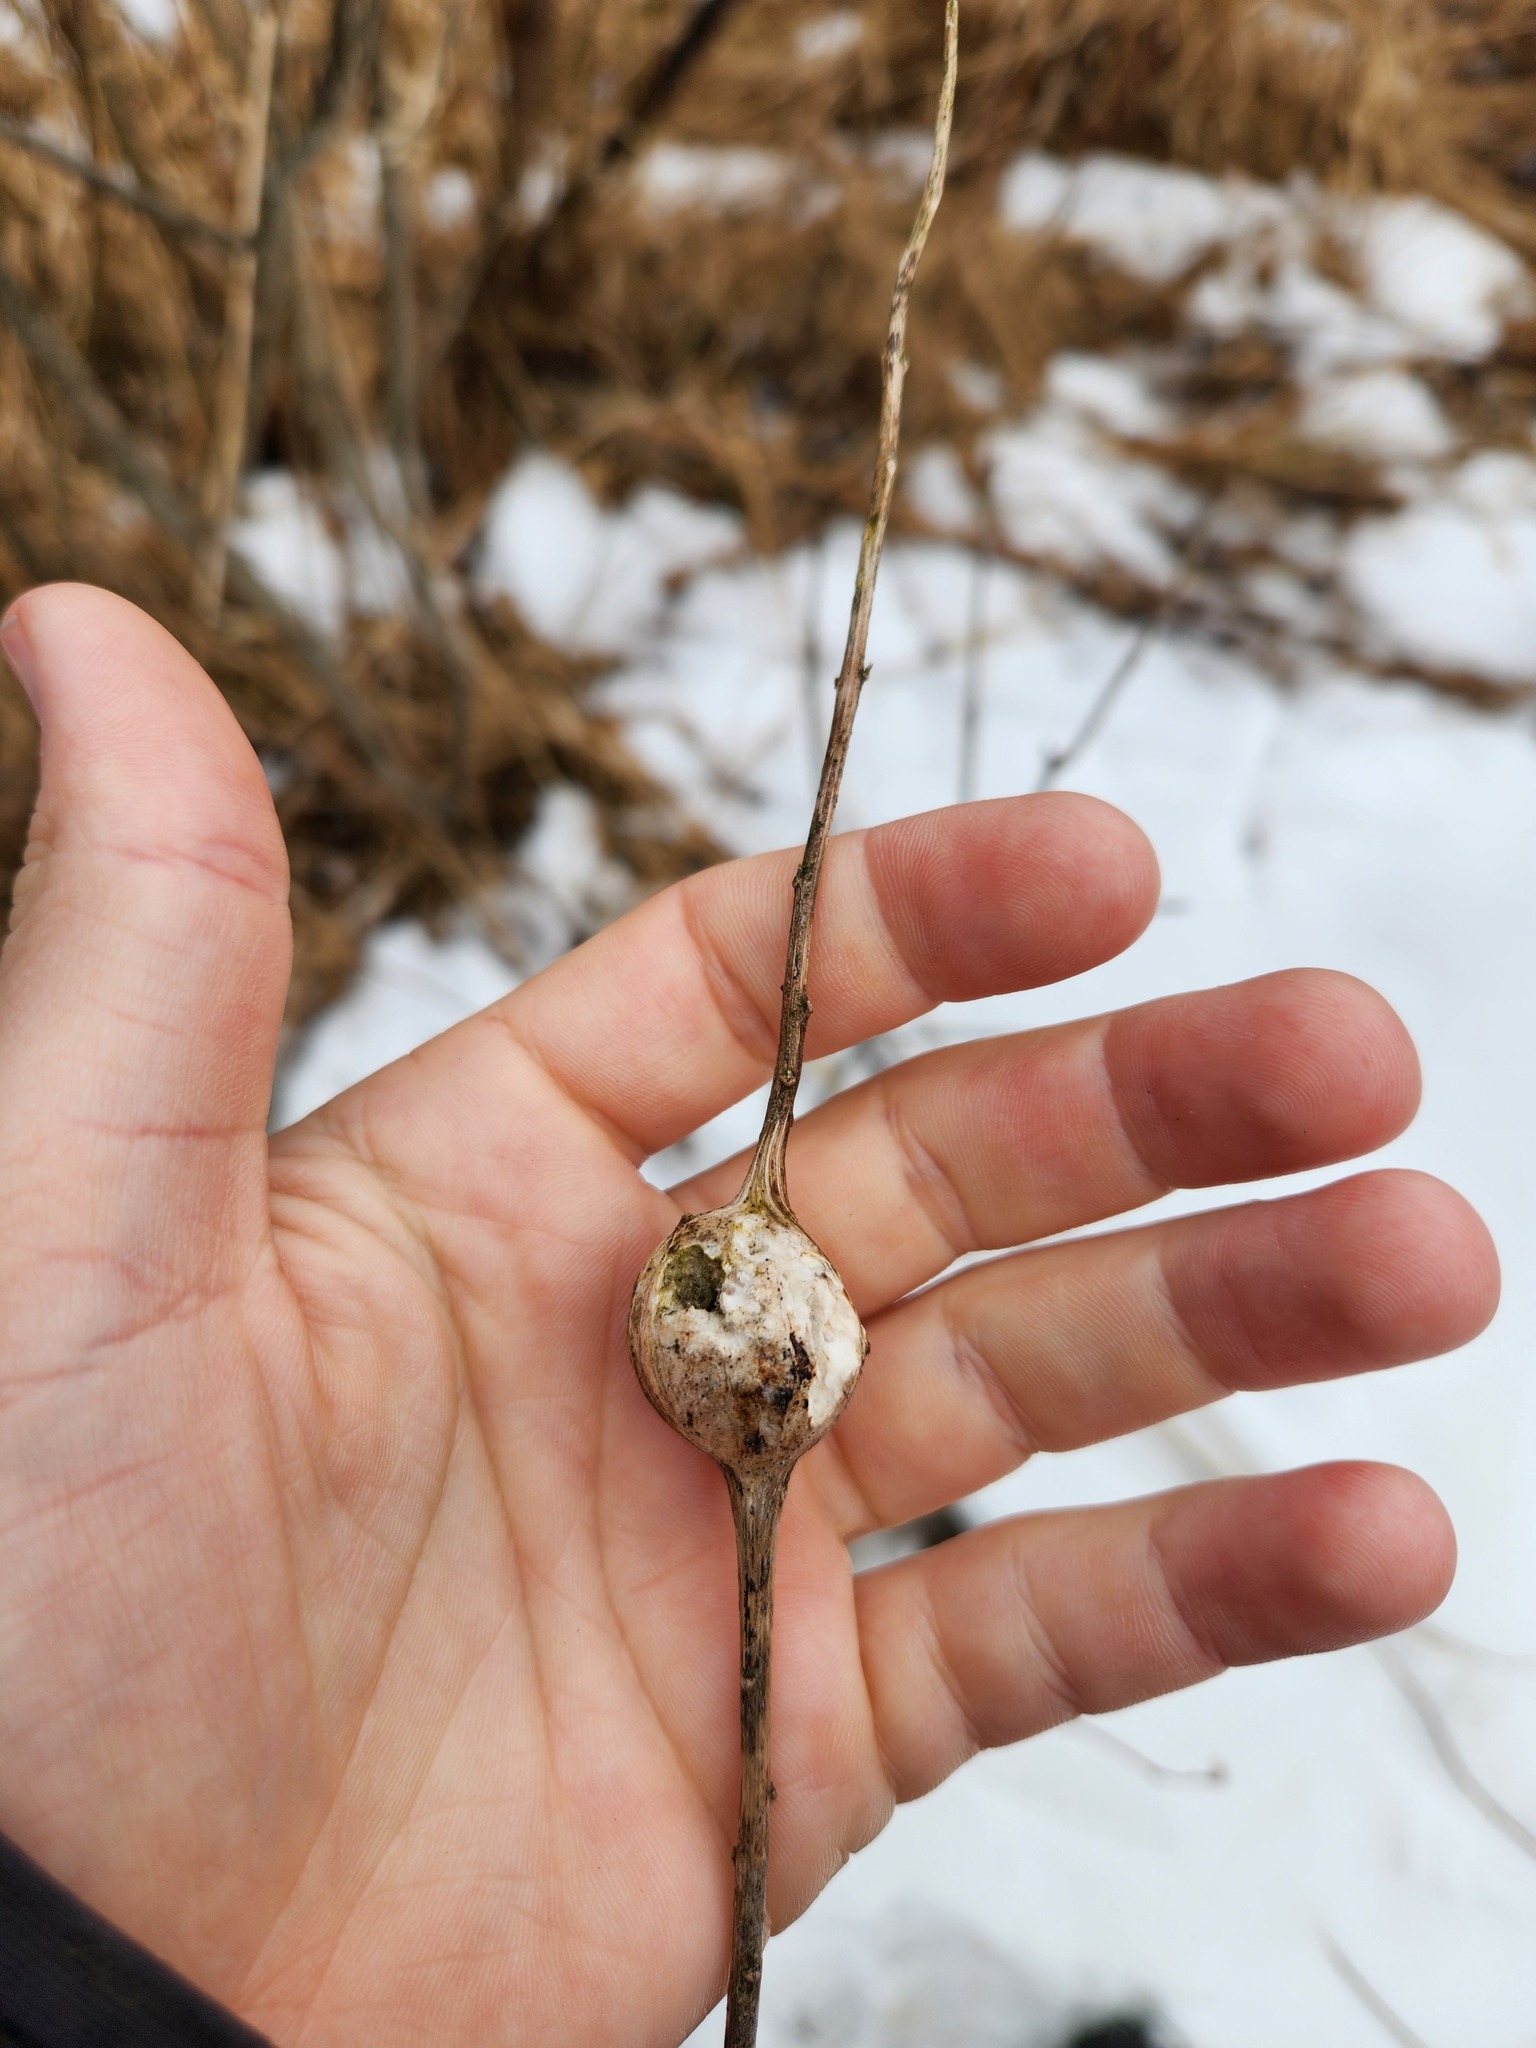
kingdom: Animalia
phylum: Arthropoda
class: Insecta
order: Diptera
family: Tephritidae
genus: Eurosta
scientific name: Eurosta solidaginis
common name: Goldenrod gall fly
